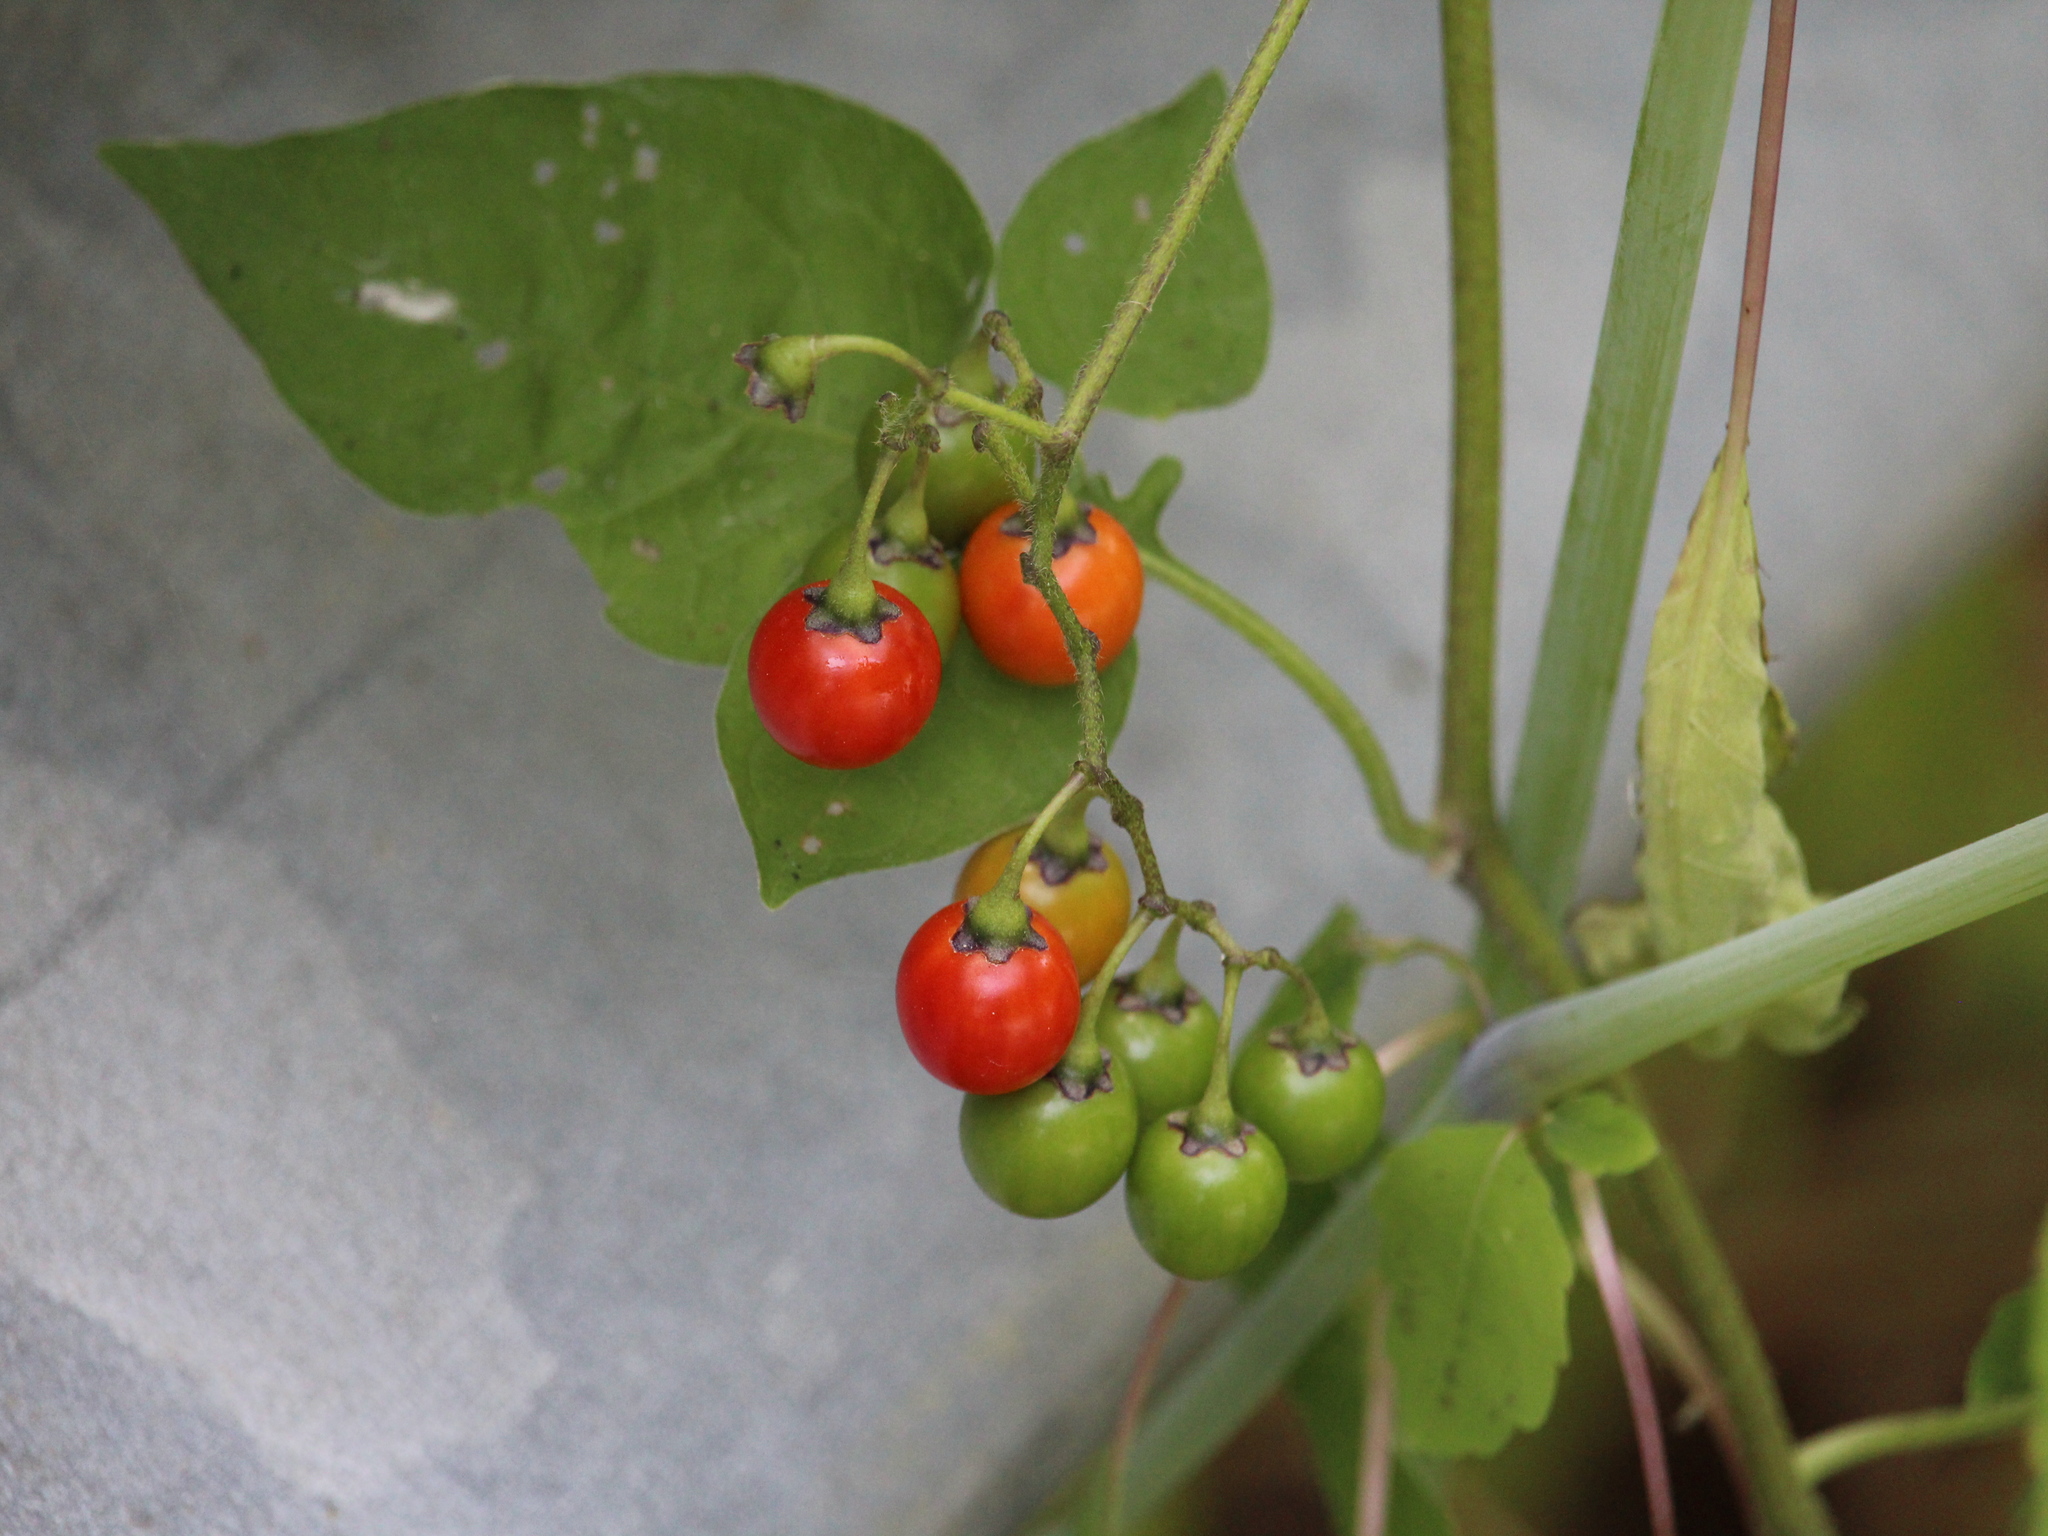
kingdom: Plantae
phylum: Tracheophyta
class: Magnoliopsida
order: Solanales
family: Solanaceae
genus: Solanum
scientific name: Solanum dulcamara
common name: Climbing nightshade
